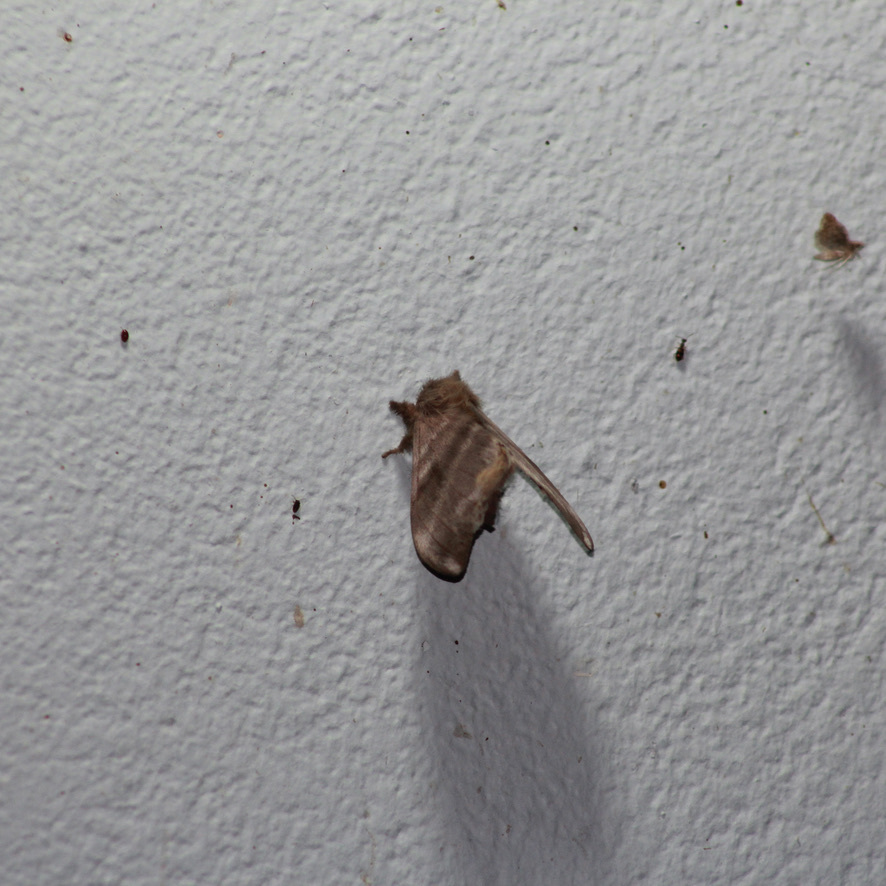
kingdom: Animalia
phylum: Arthropoda
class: Insecta
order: Lepidoptera
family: Saturniidae
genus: Hylesia
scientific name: Hylesia metabus
